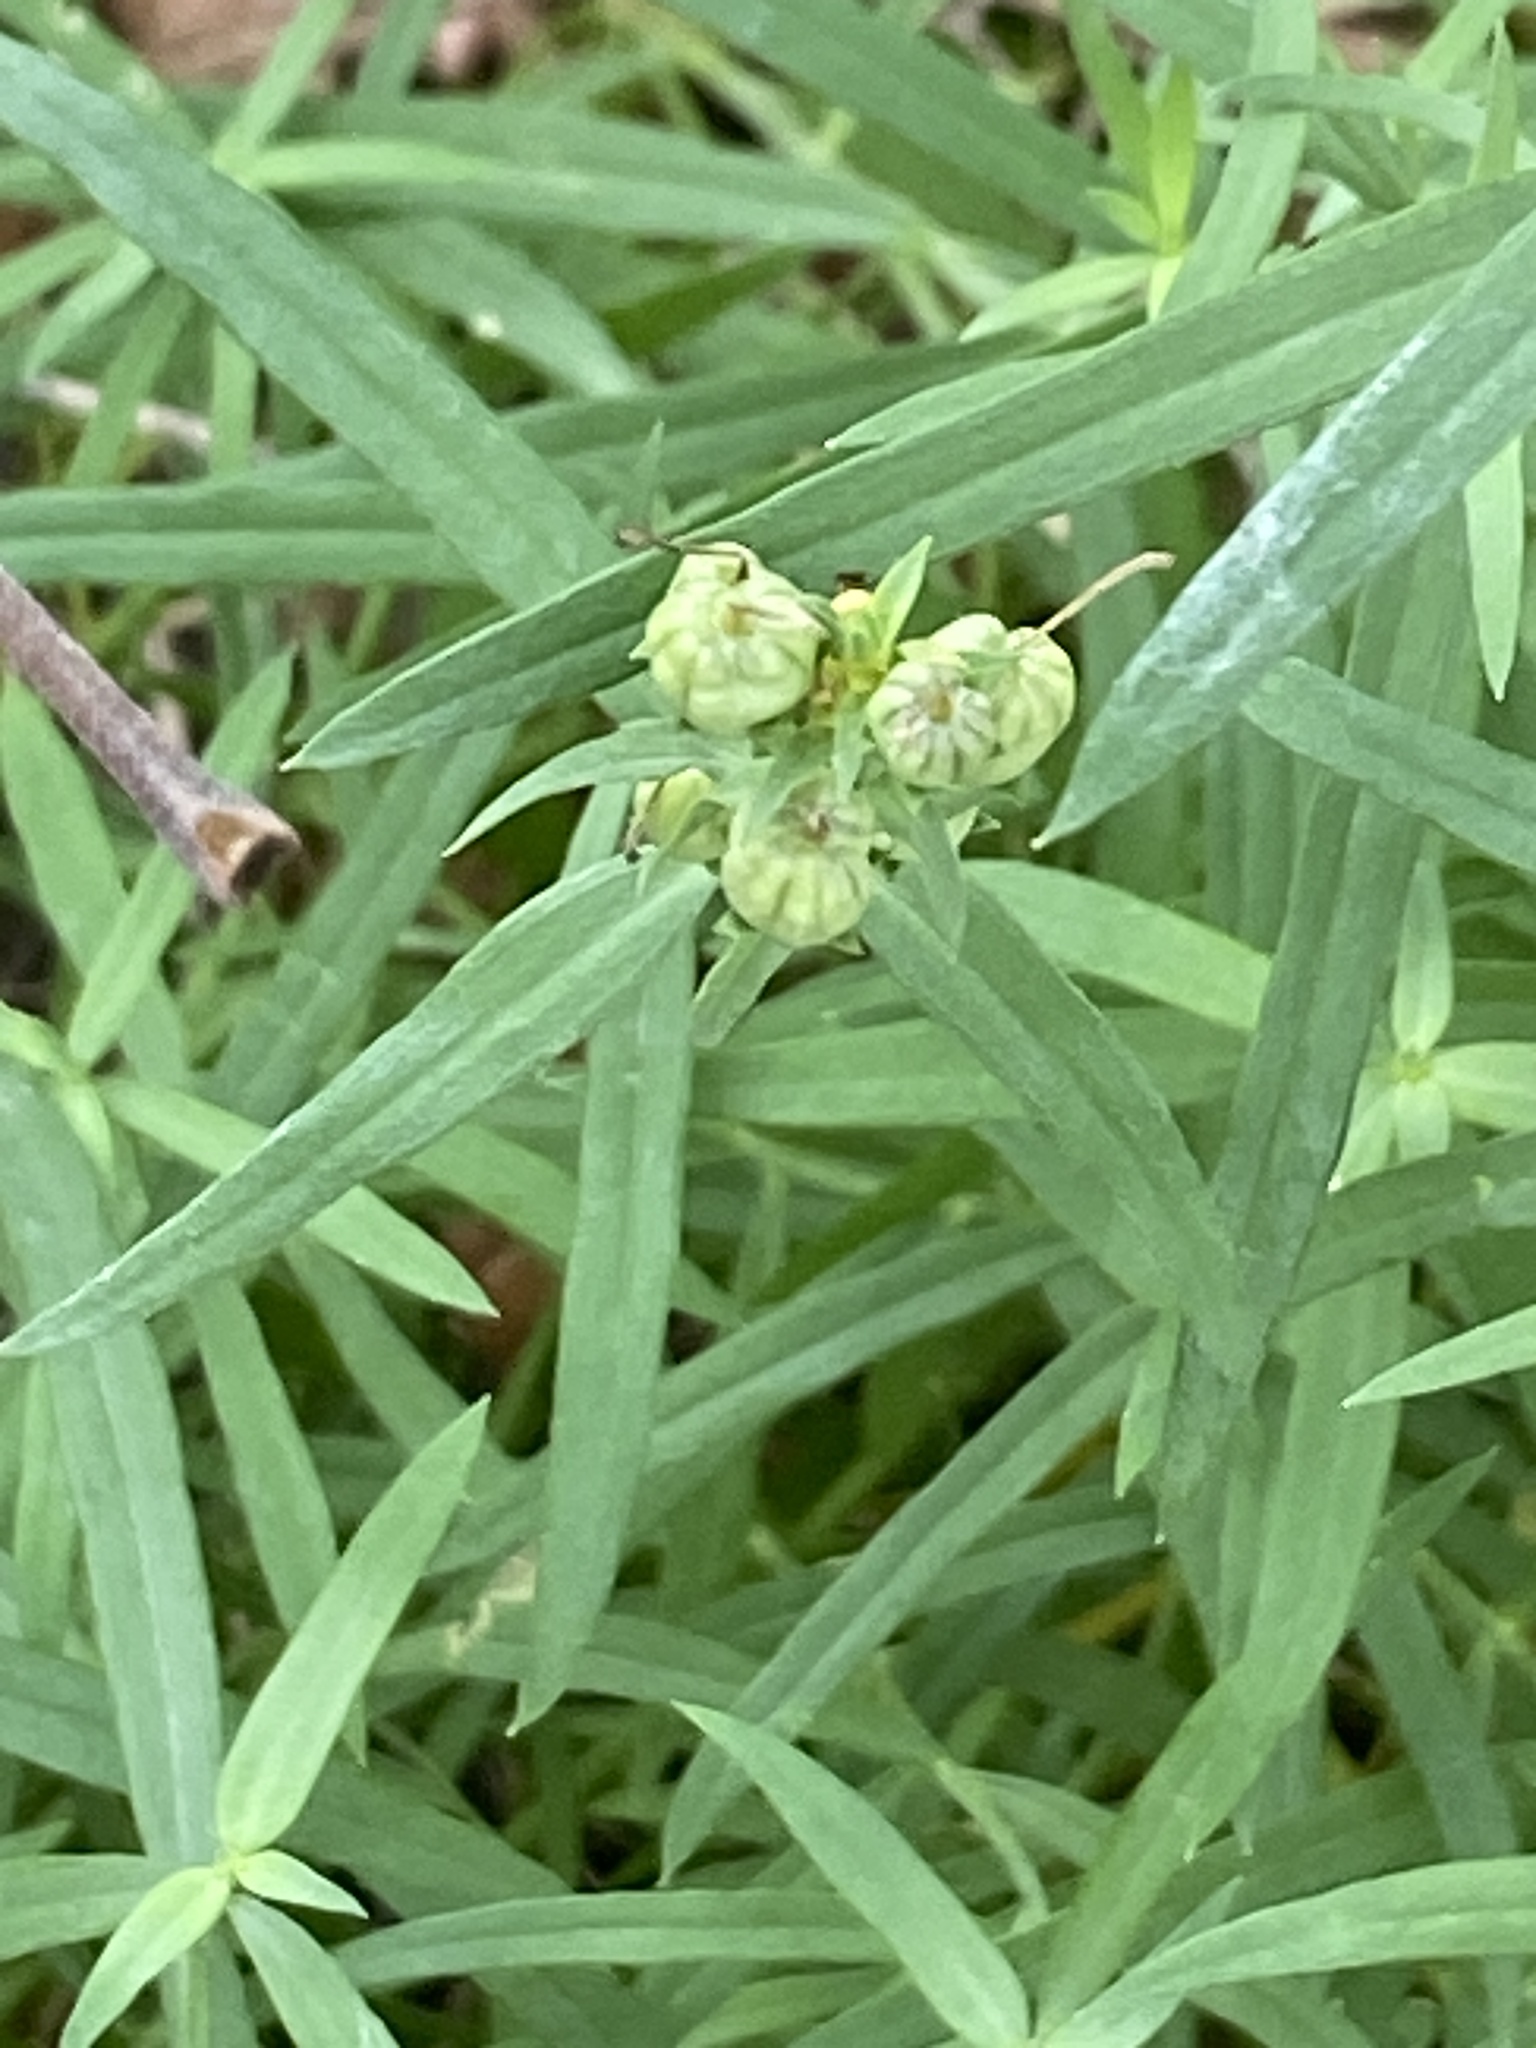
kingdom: Plantae
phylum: Tracheophyta
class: Magnoliopsida
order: Lamiales
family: Plantaginaceae
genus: Linaria
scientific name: Linaria vulgaris
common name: Butter and eggs
